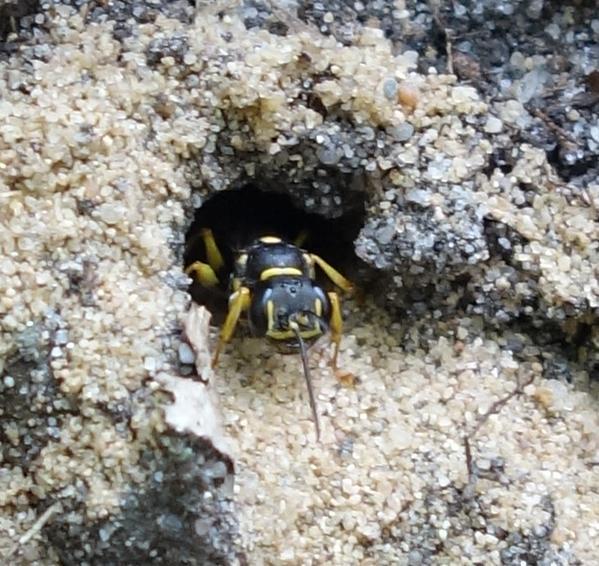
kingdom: Animalia
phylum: Arthropoda
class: Insecta
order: Hymenoptera
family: Crabronidae
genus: Mellinus
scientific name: Mellinus arvensis
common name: Field digger wasp
